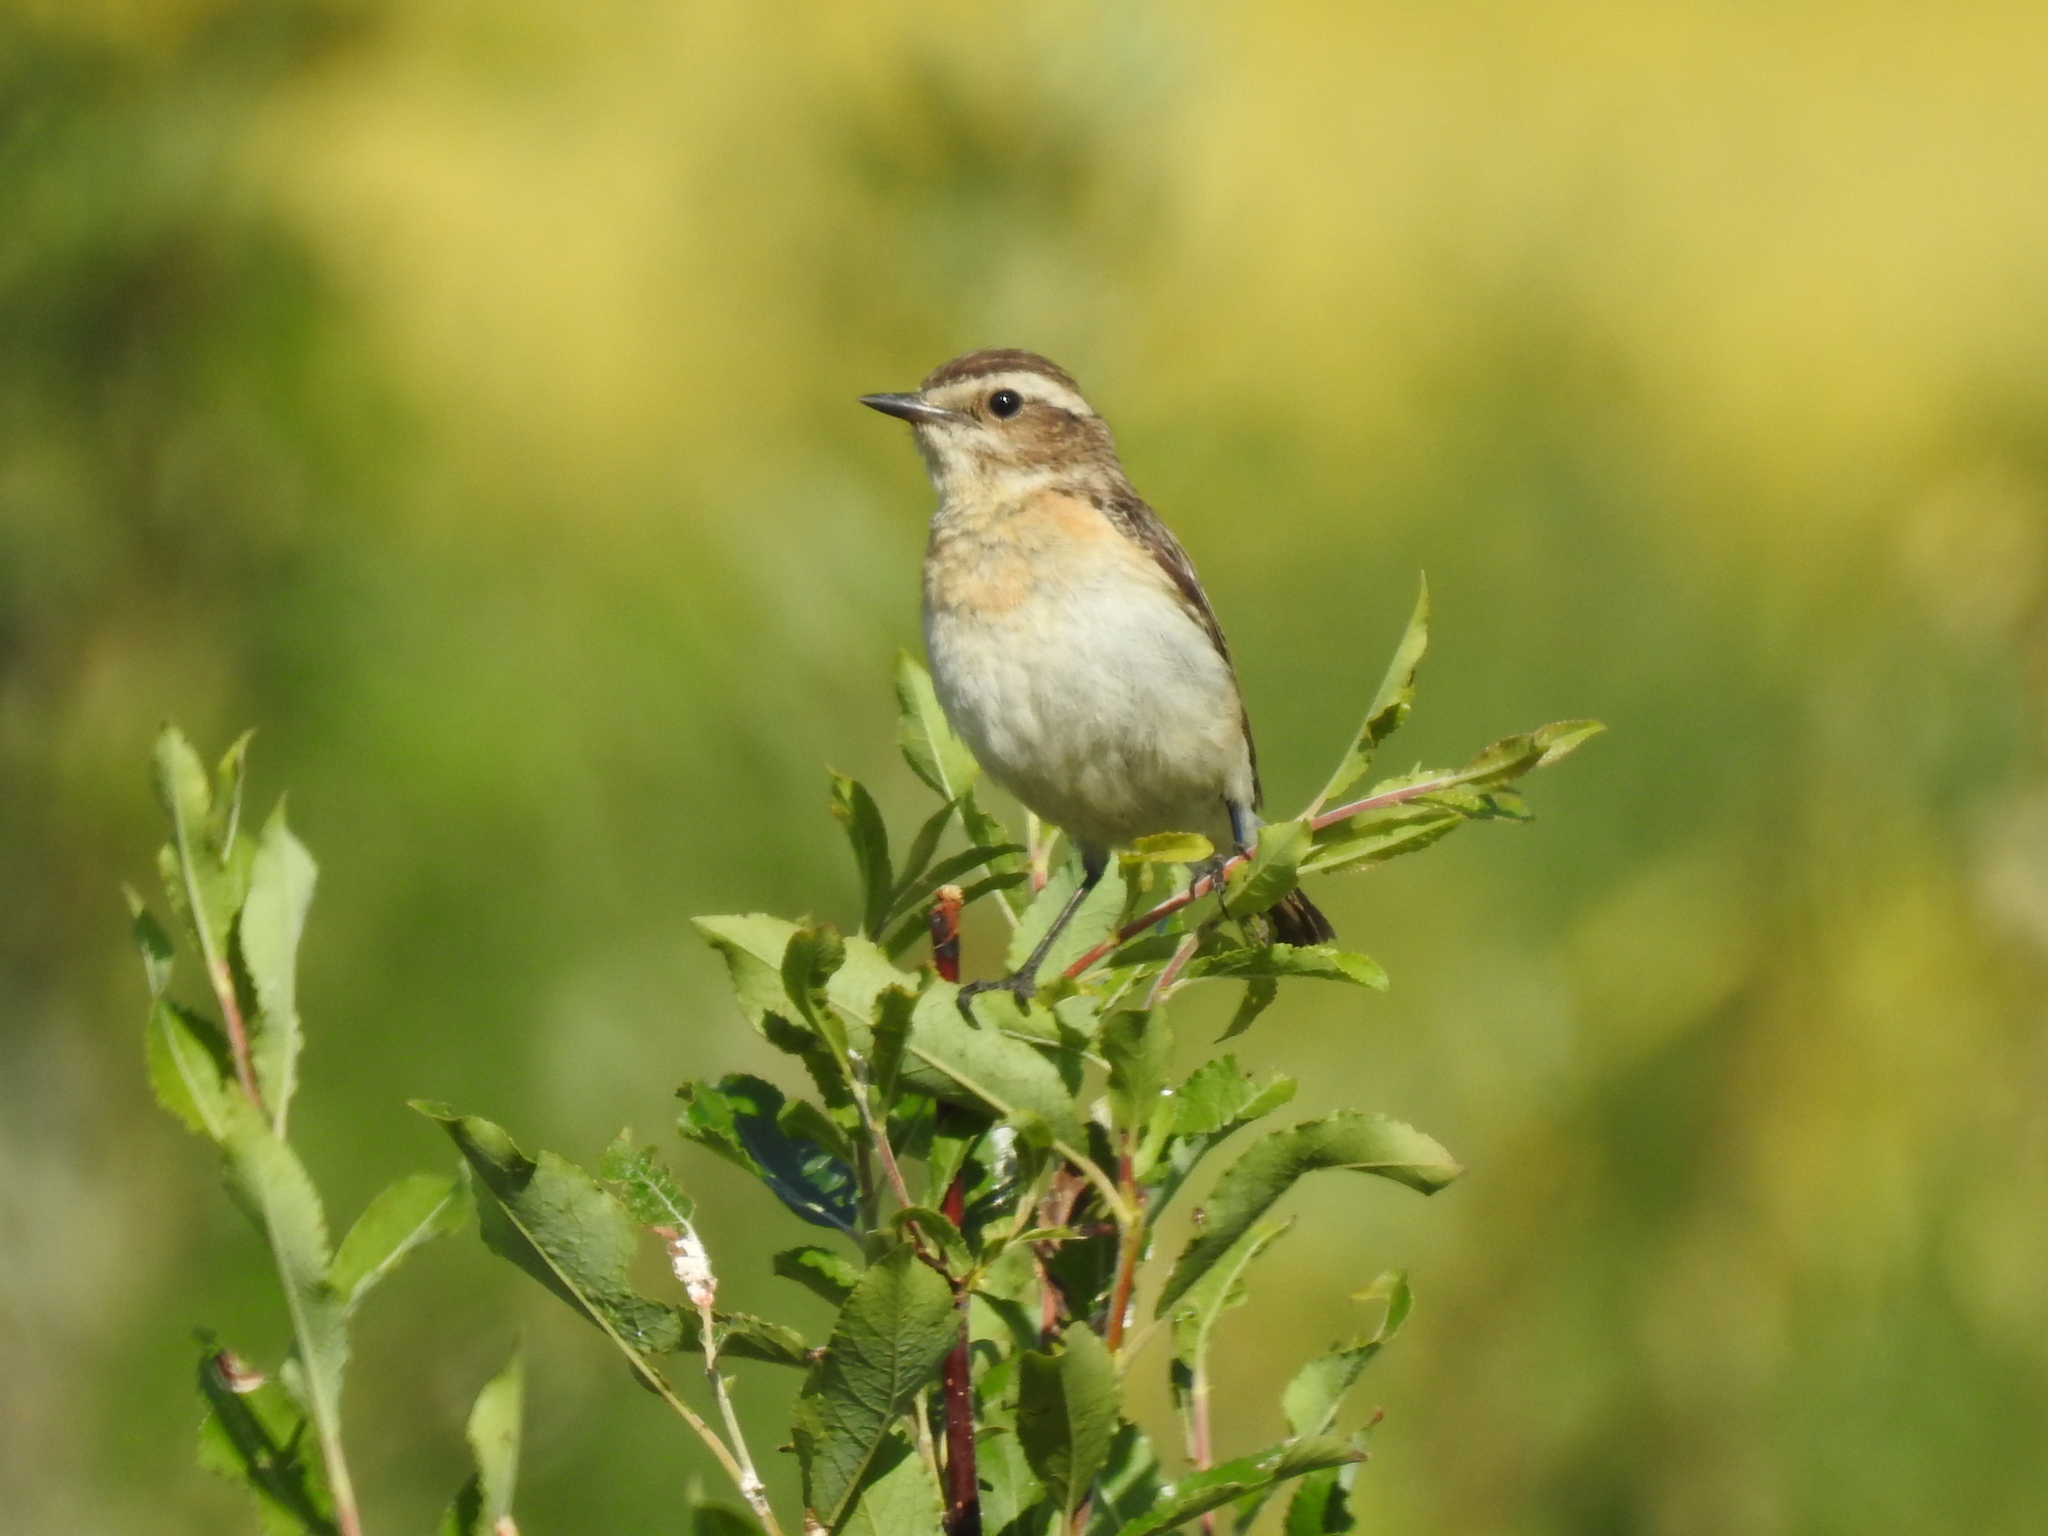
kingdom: Animalia
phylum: Chordata
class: Aves
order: Passeriformes
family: Muscicapidae
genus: Saxicola
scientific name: Saxicola rubetra
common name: Whinchat
